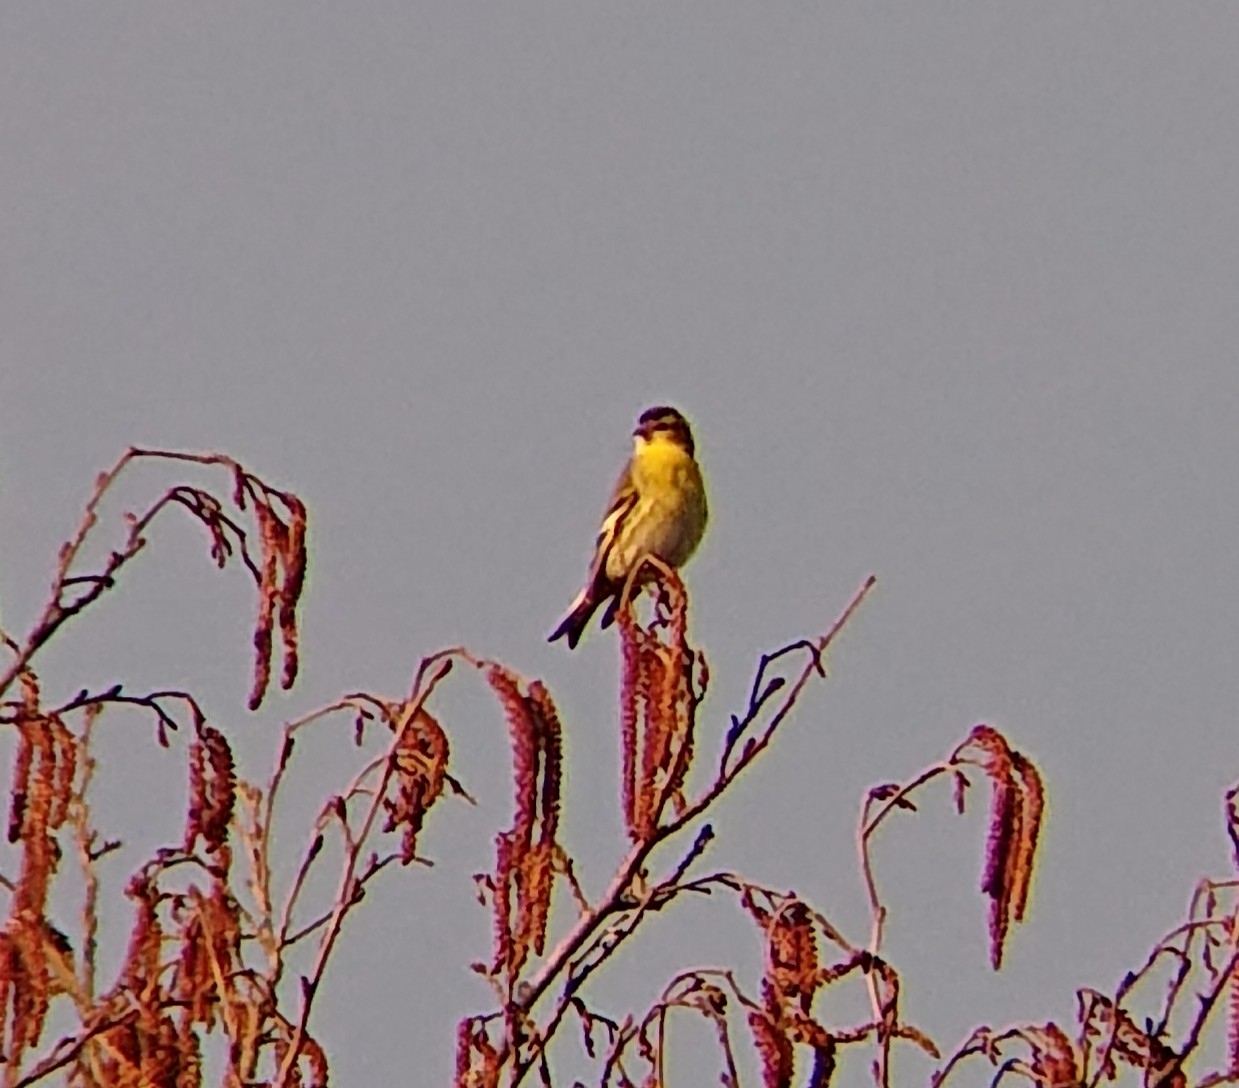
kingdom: Animalia
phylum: Chordata
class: Aves
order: Passeriformes
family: Fringillidae
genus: Serinus
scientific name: Serinus serinus
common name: European serin
